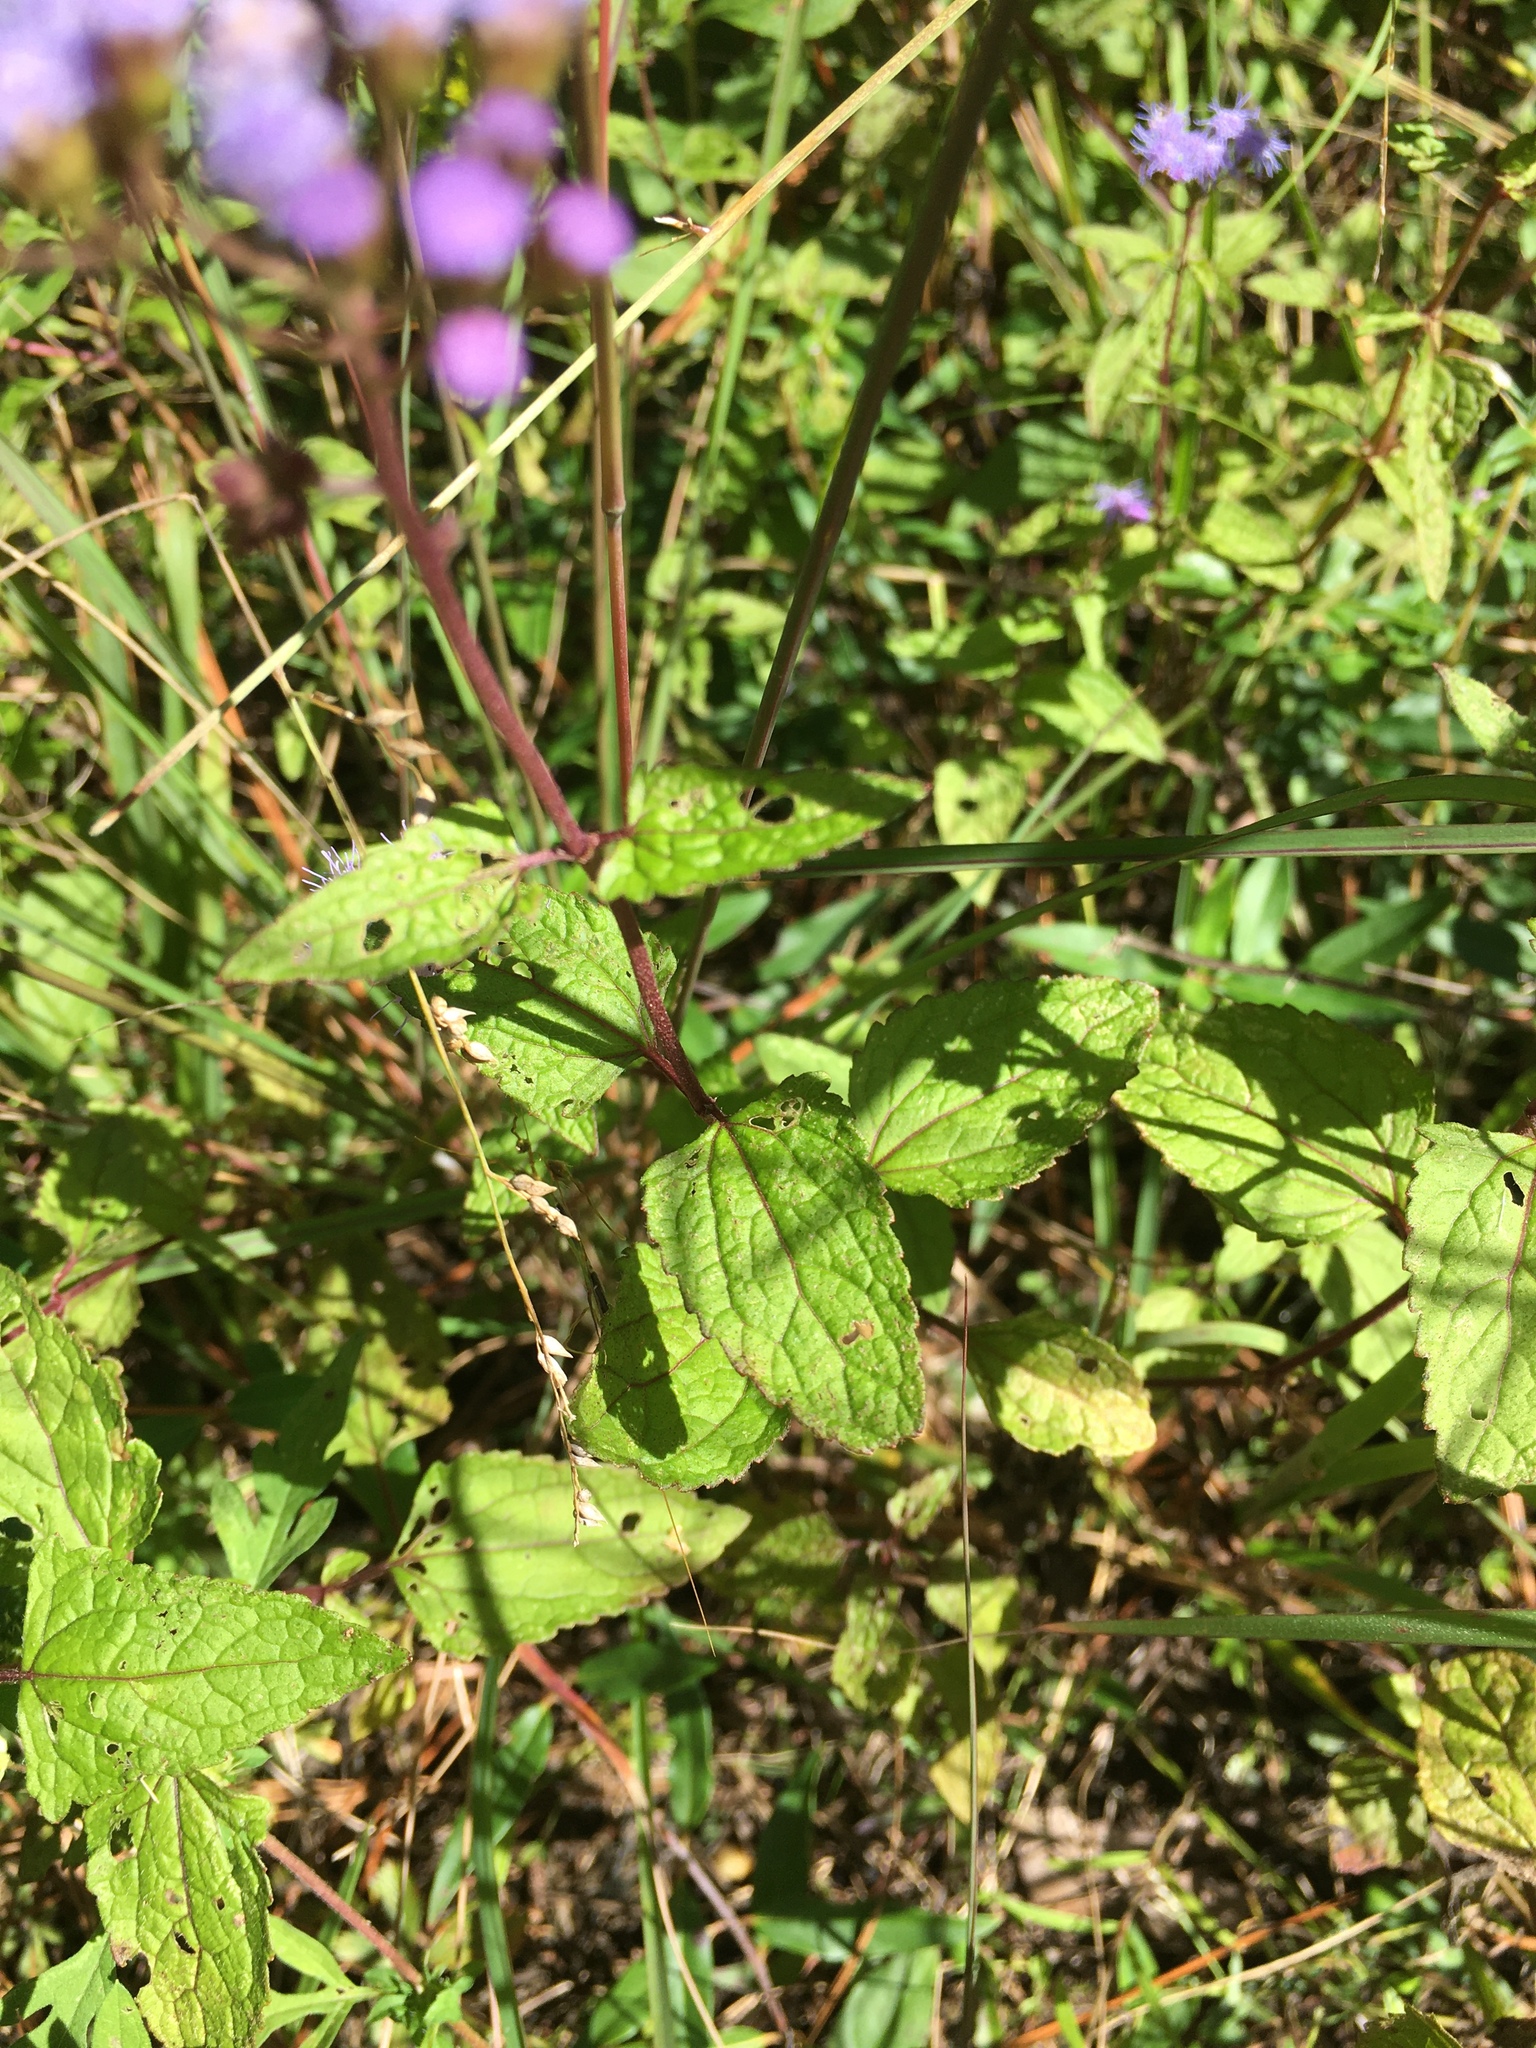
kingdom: Plantae
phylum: Tracheophyta
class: Magnoliopsida
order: Asterales
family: Asteraceae
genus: Conoclinium
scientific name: Conoclinium coelestinum
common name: Blue mistflower
